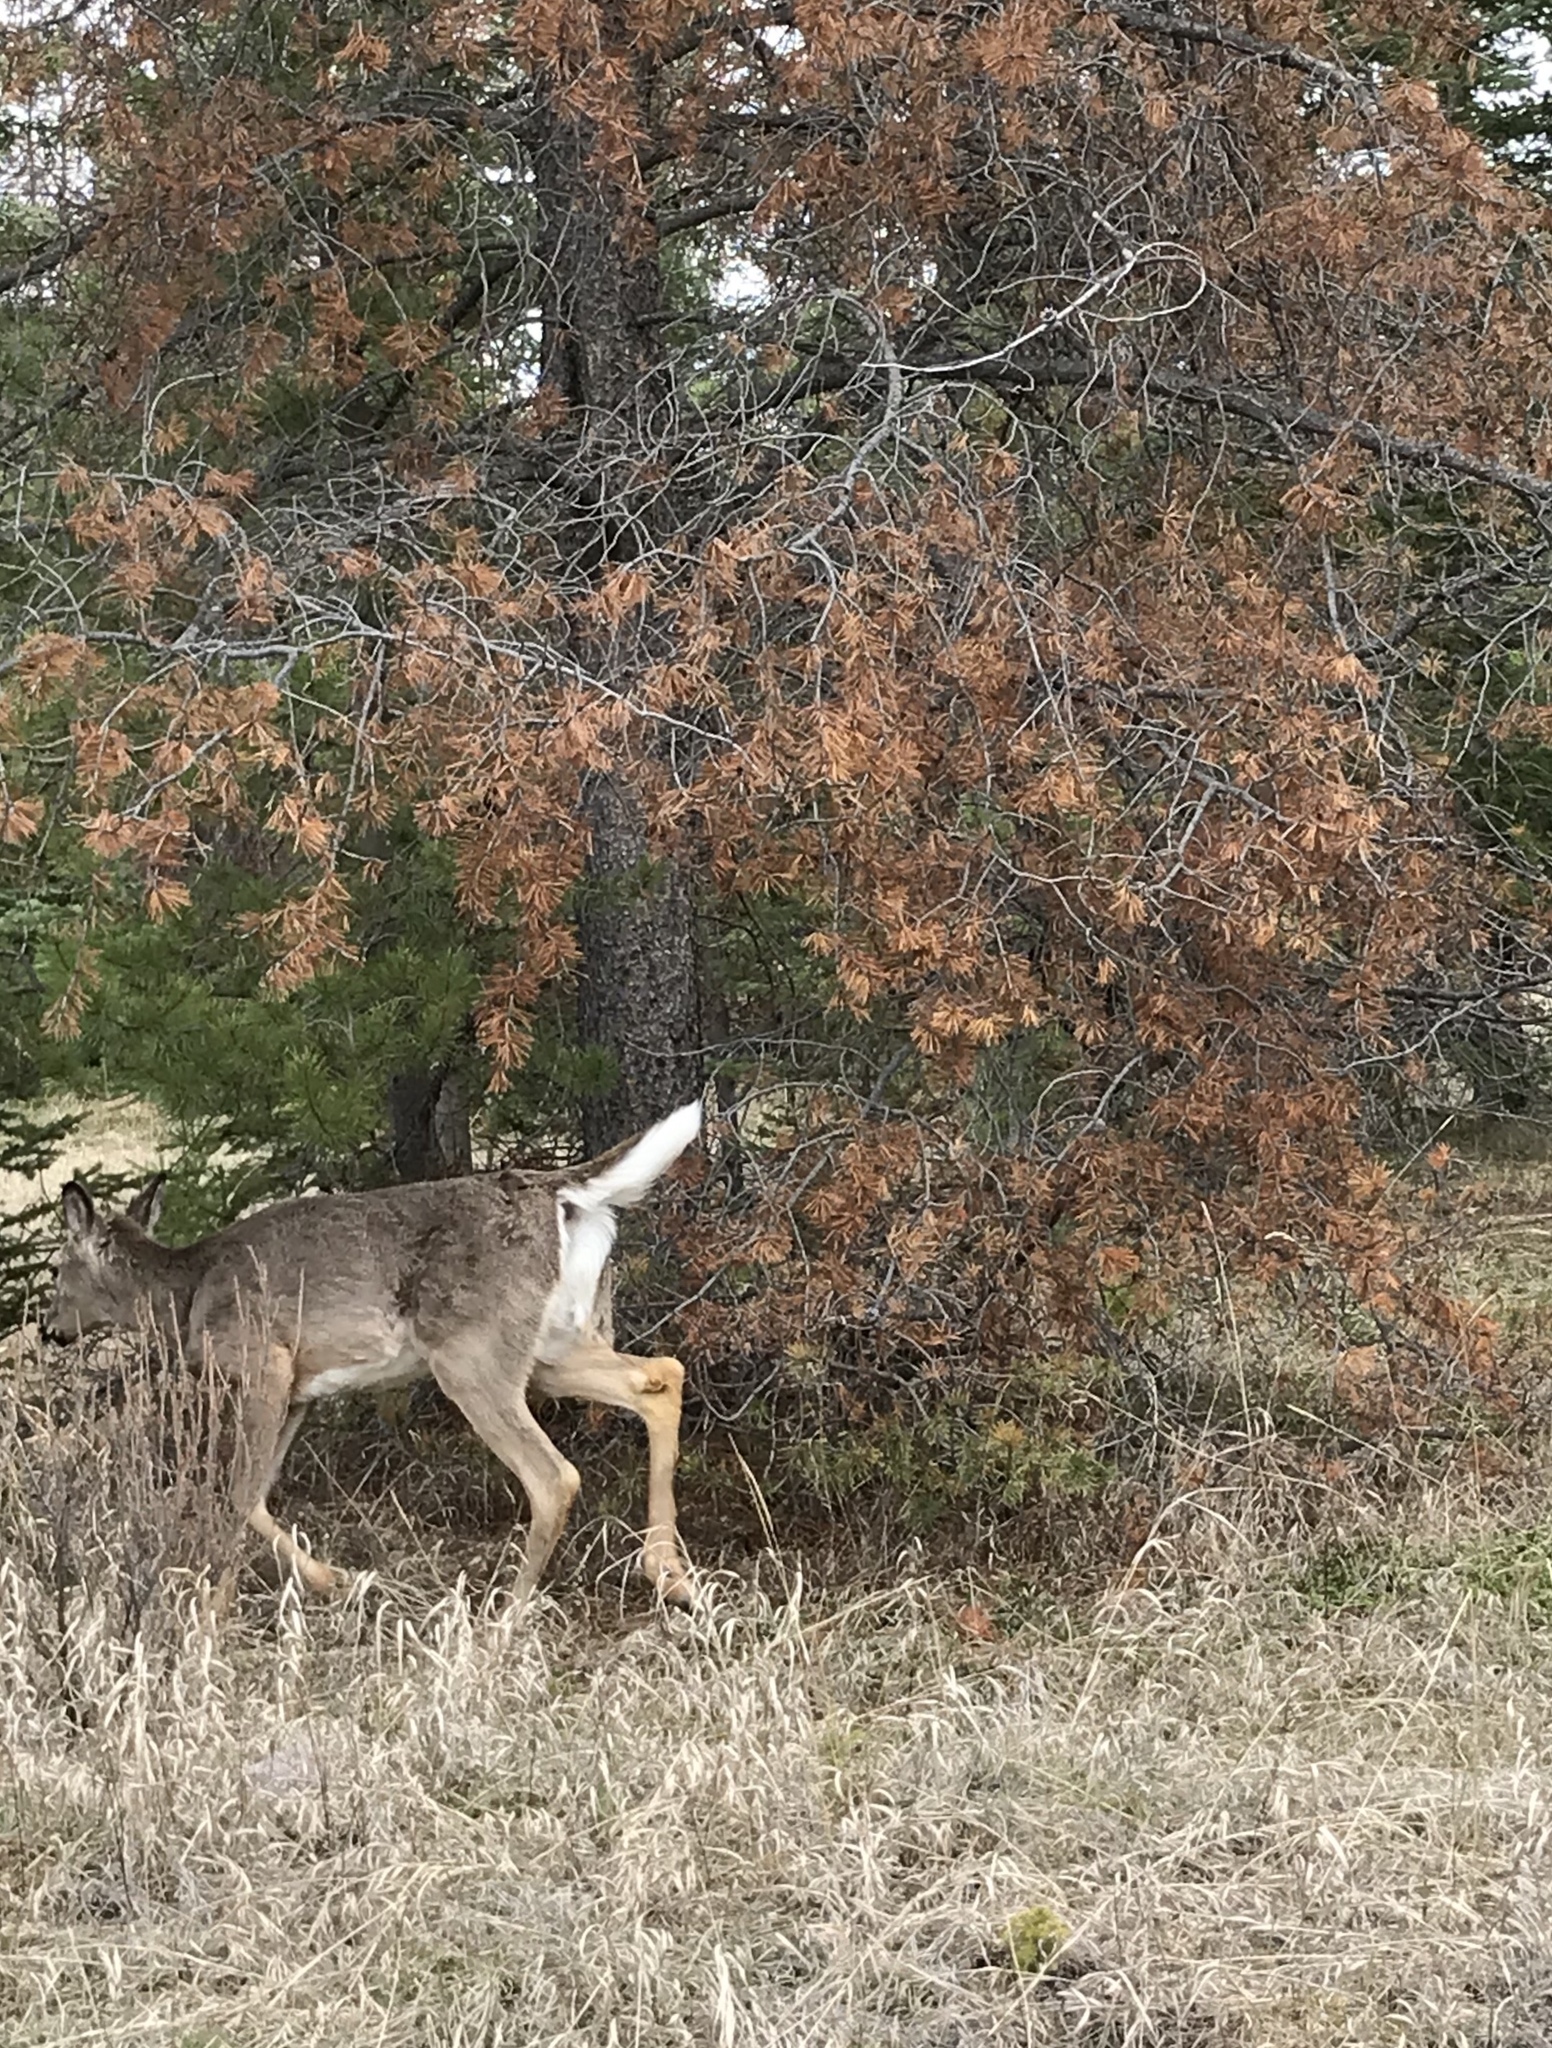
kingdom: Animalia
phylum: Chordata
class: Mammalia
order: Artiodactyla
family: Cervidae
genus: Odocoileus
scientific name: Odocoileus virginianus
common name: White-tailed deer
